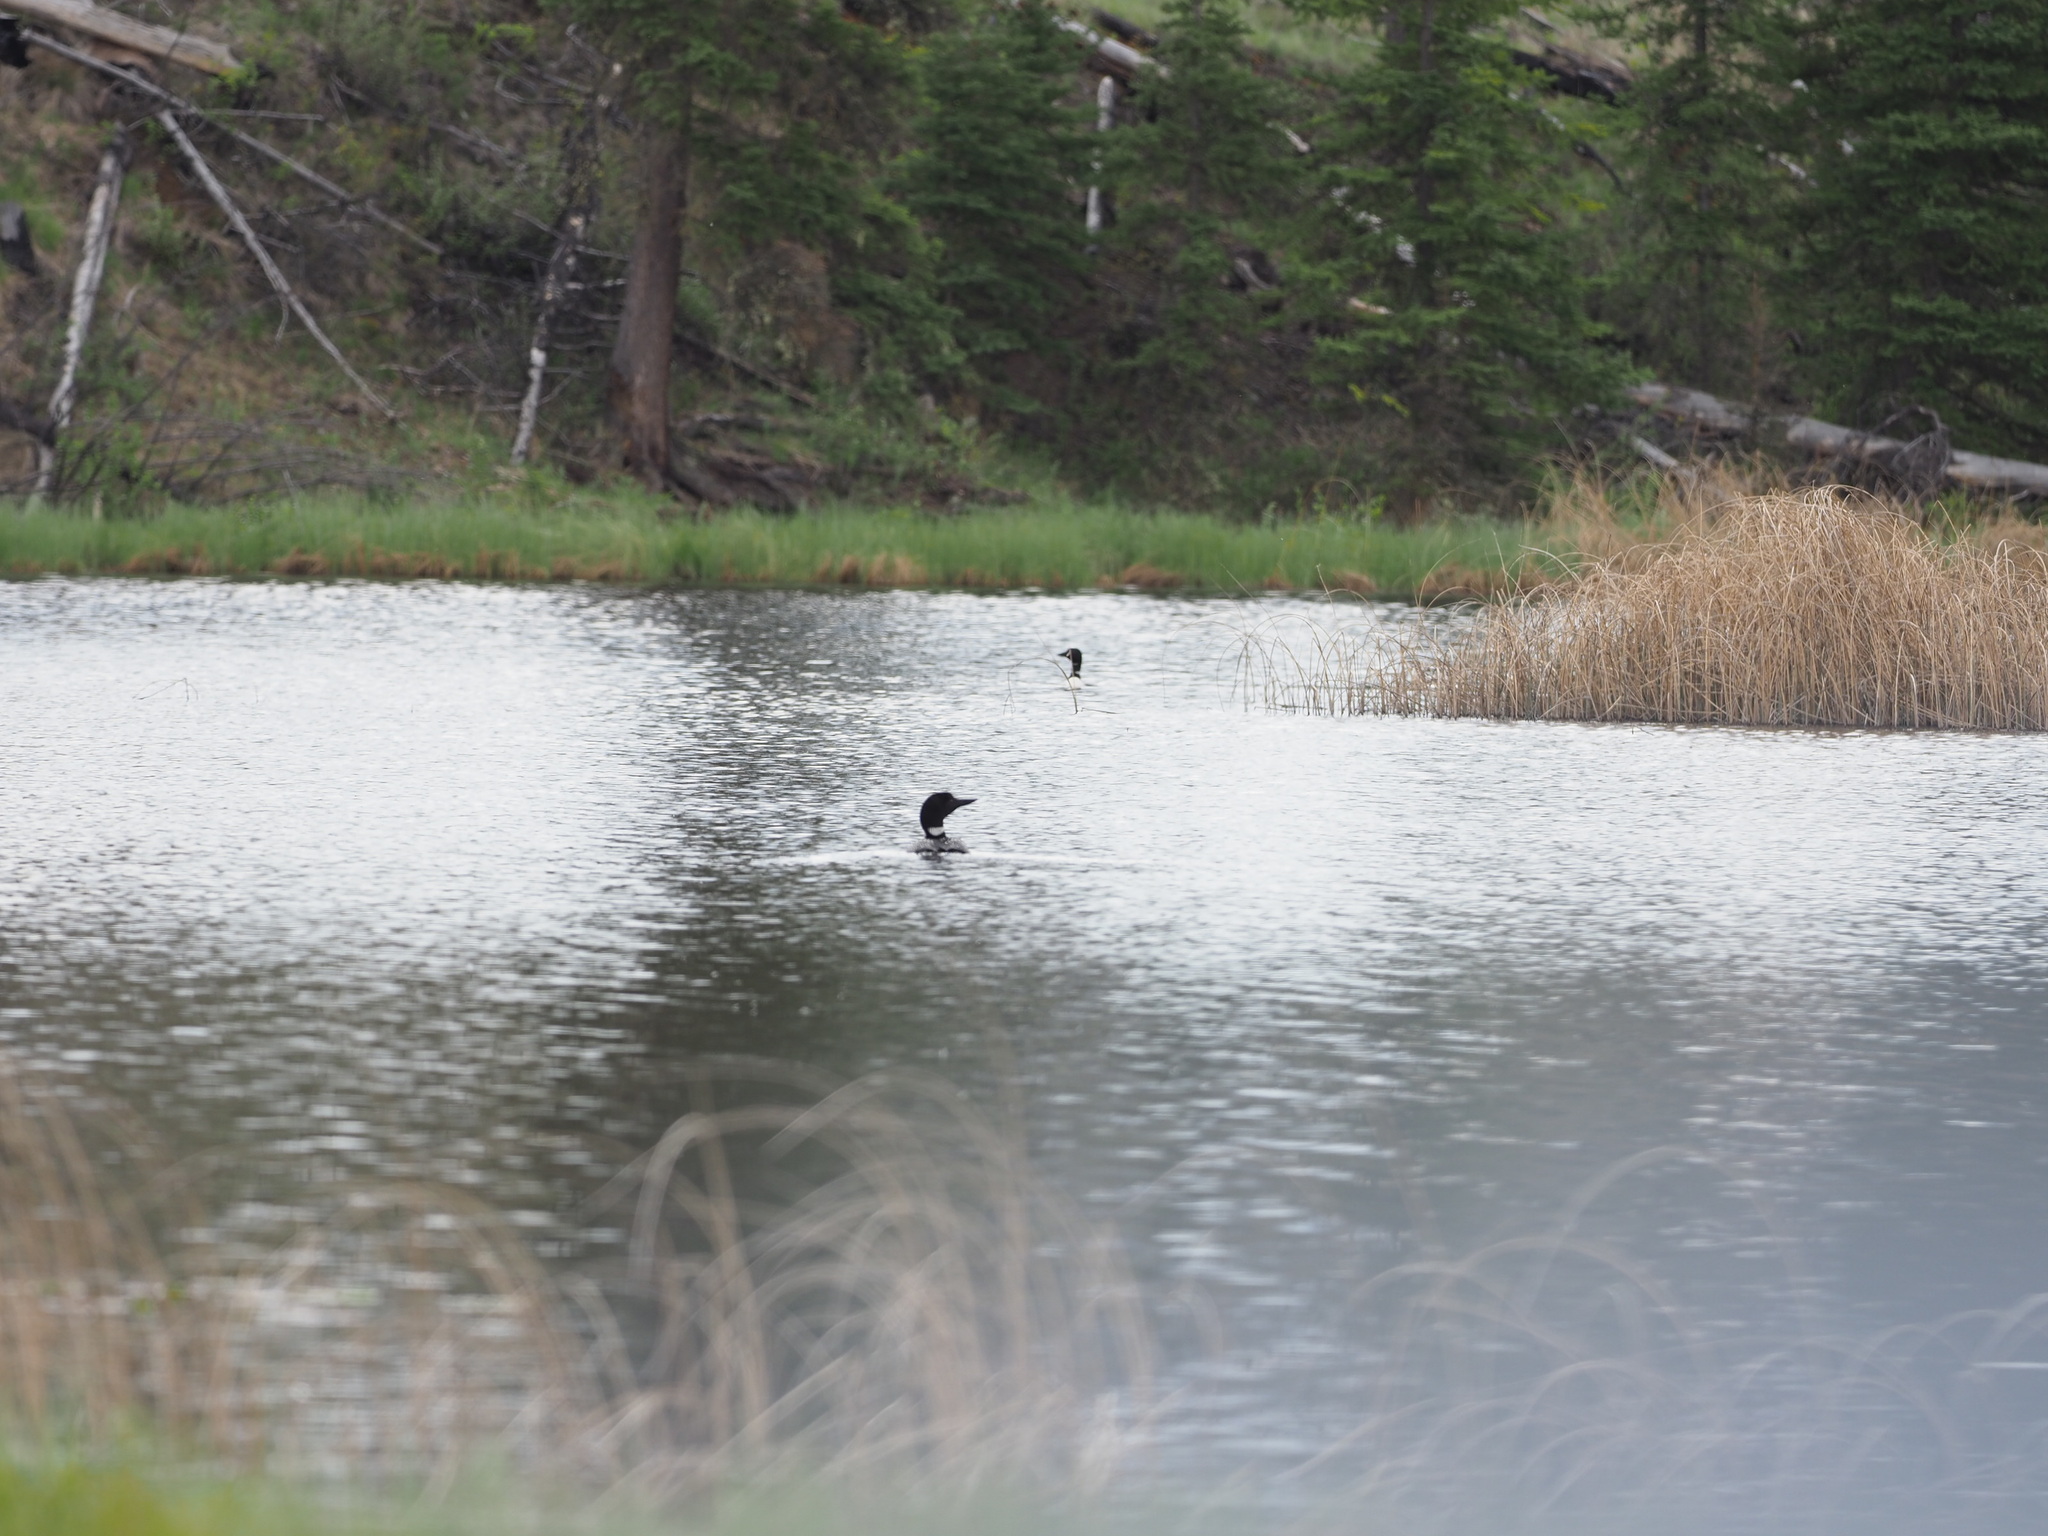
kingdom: Animalia
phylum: Chordata
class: Aves
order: Gaviiformes
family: Gaviidae
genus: Gavia
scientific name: Gavia immer
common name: Common loon
